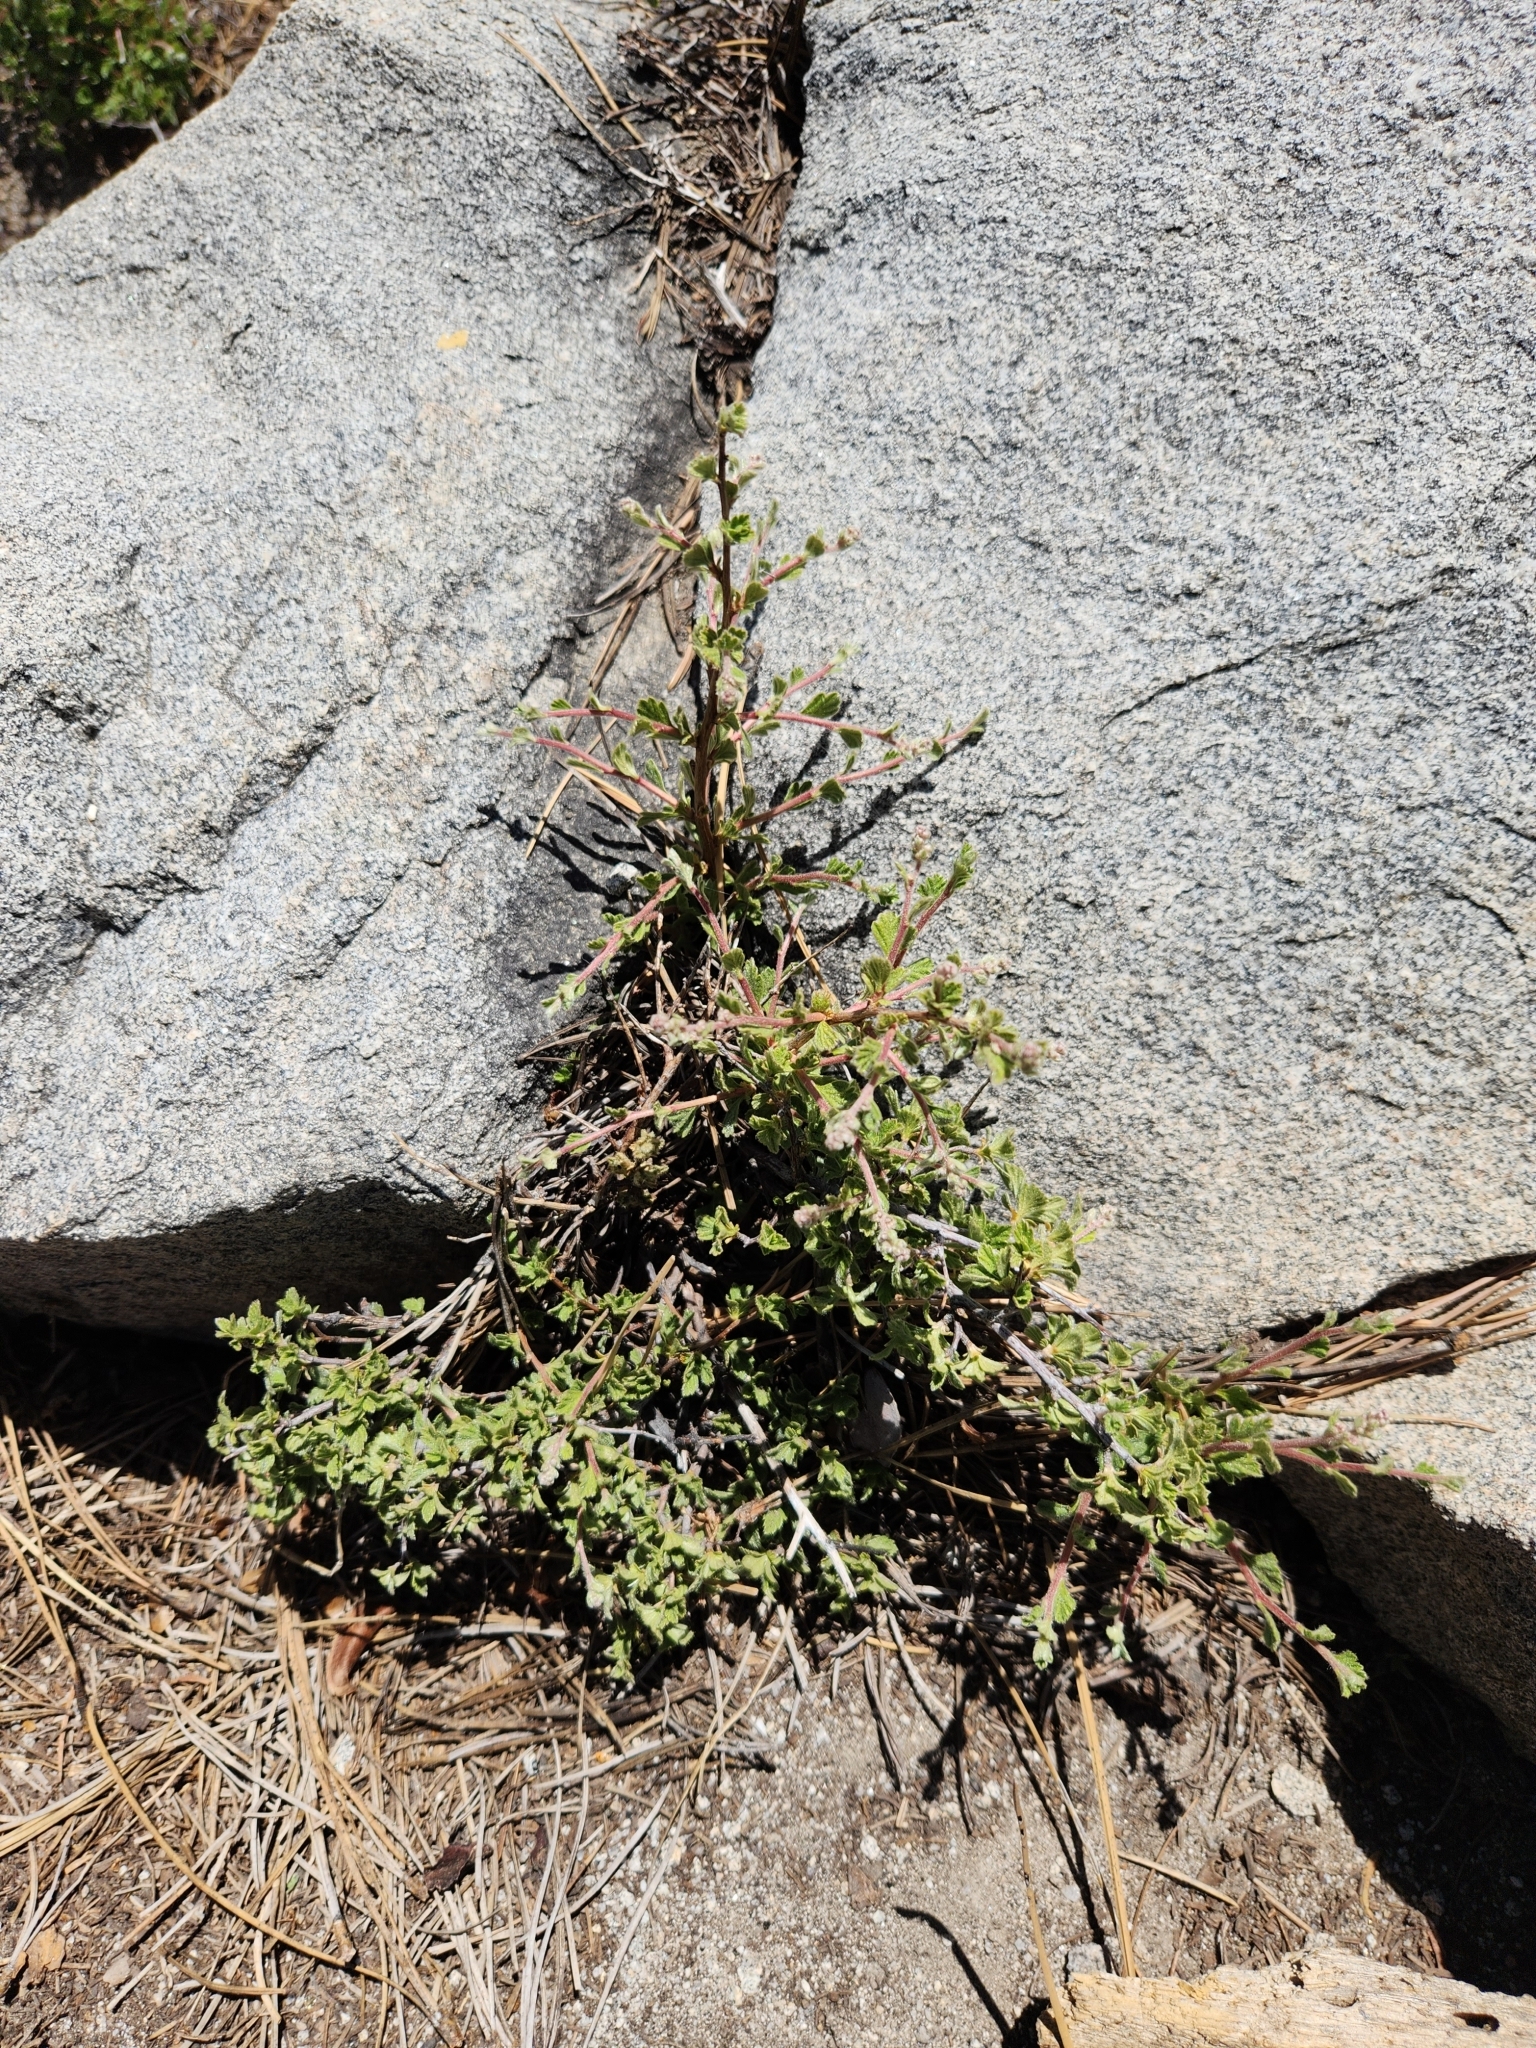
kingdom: Plantae
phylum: Tracheophyta
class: Magnoliopsida
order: Rosales
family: Rosaceae
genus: Holodiscus
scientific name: Holodiscus discolor
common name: Oceanspray
